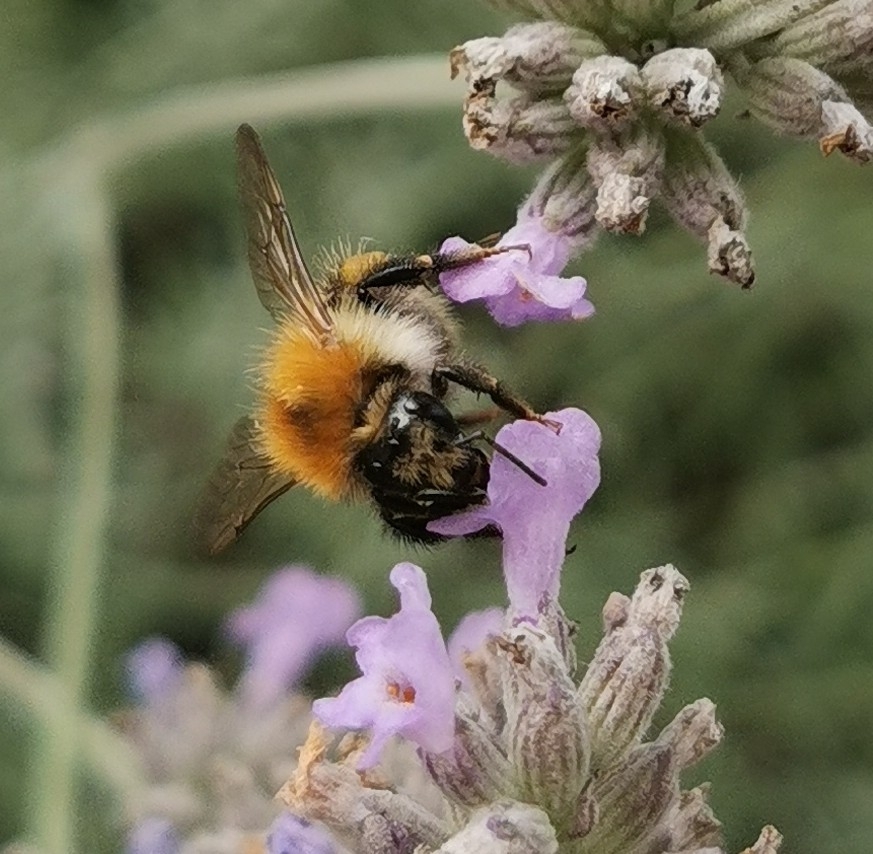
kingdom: Animalia
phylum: Arthropoda
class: Insecta
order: Hymenoptera
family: Apidae
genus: Bombus
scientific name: Bombus pascuorum
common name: Common carder bee
